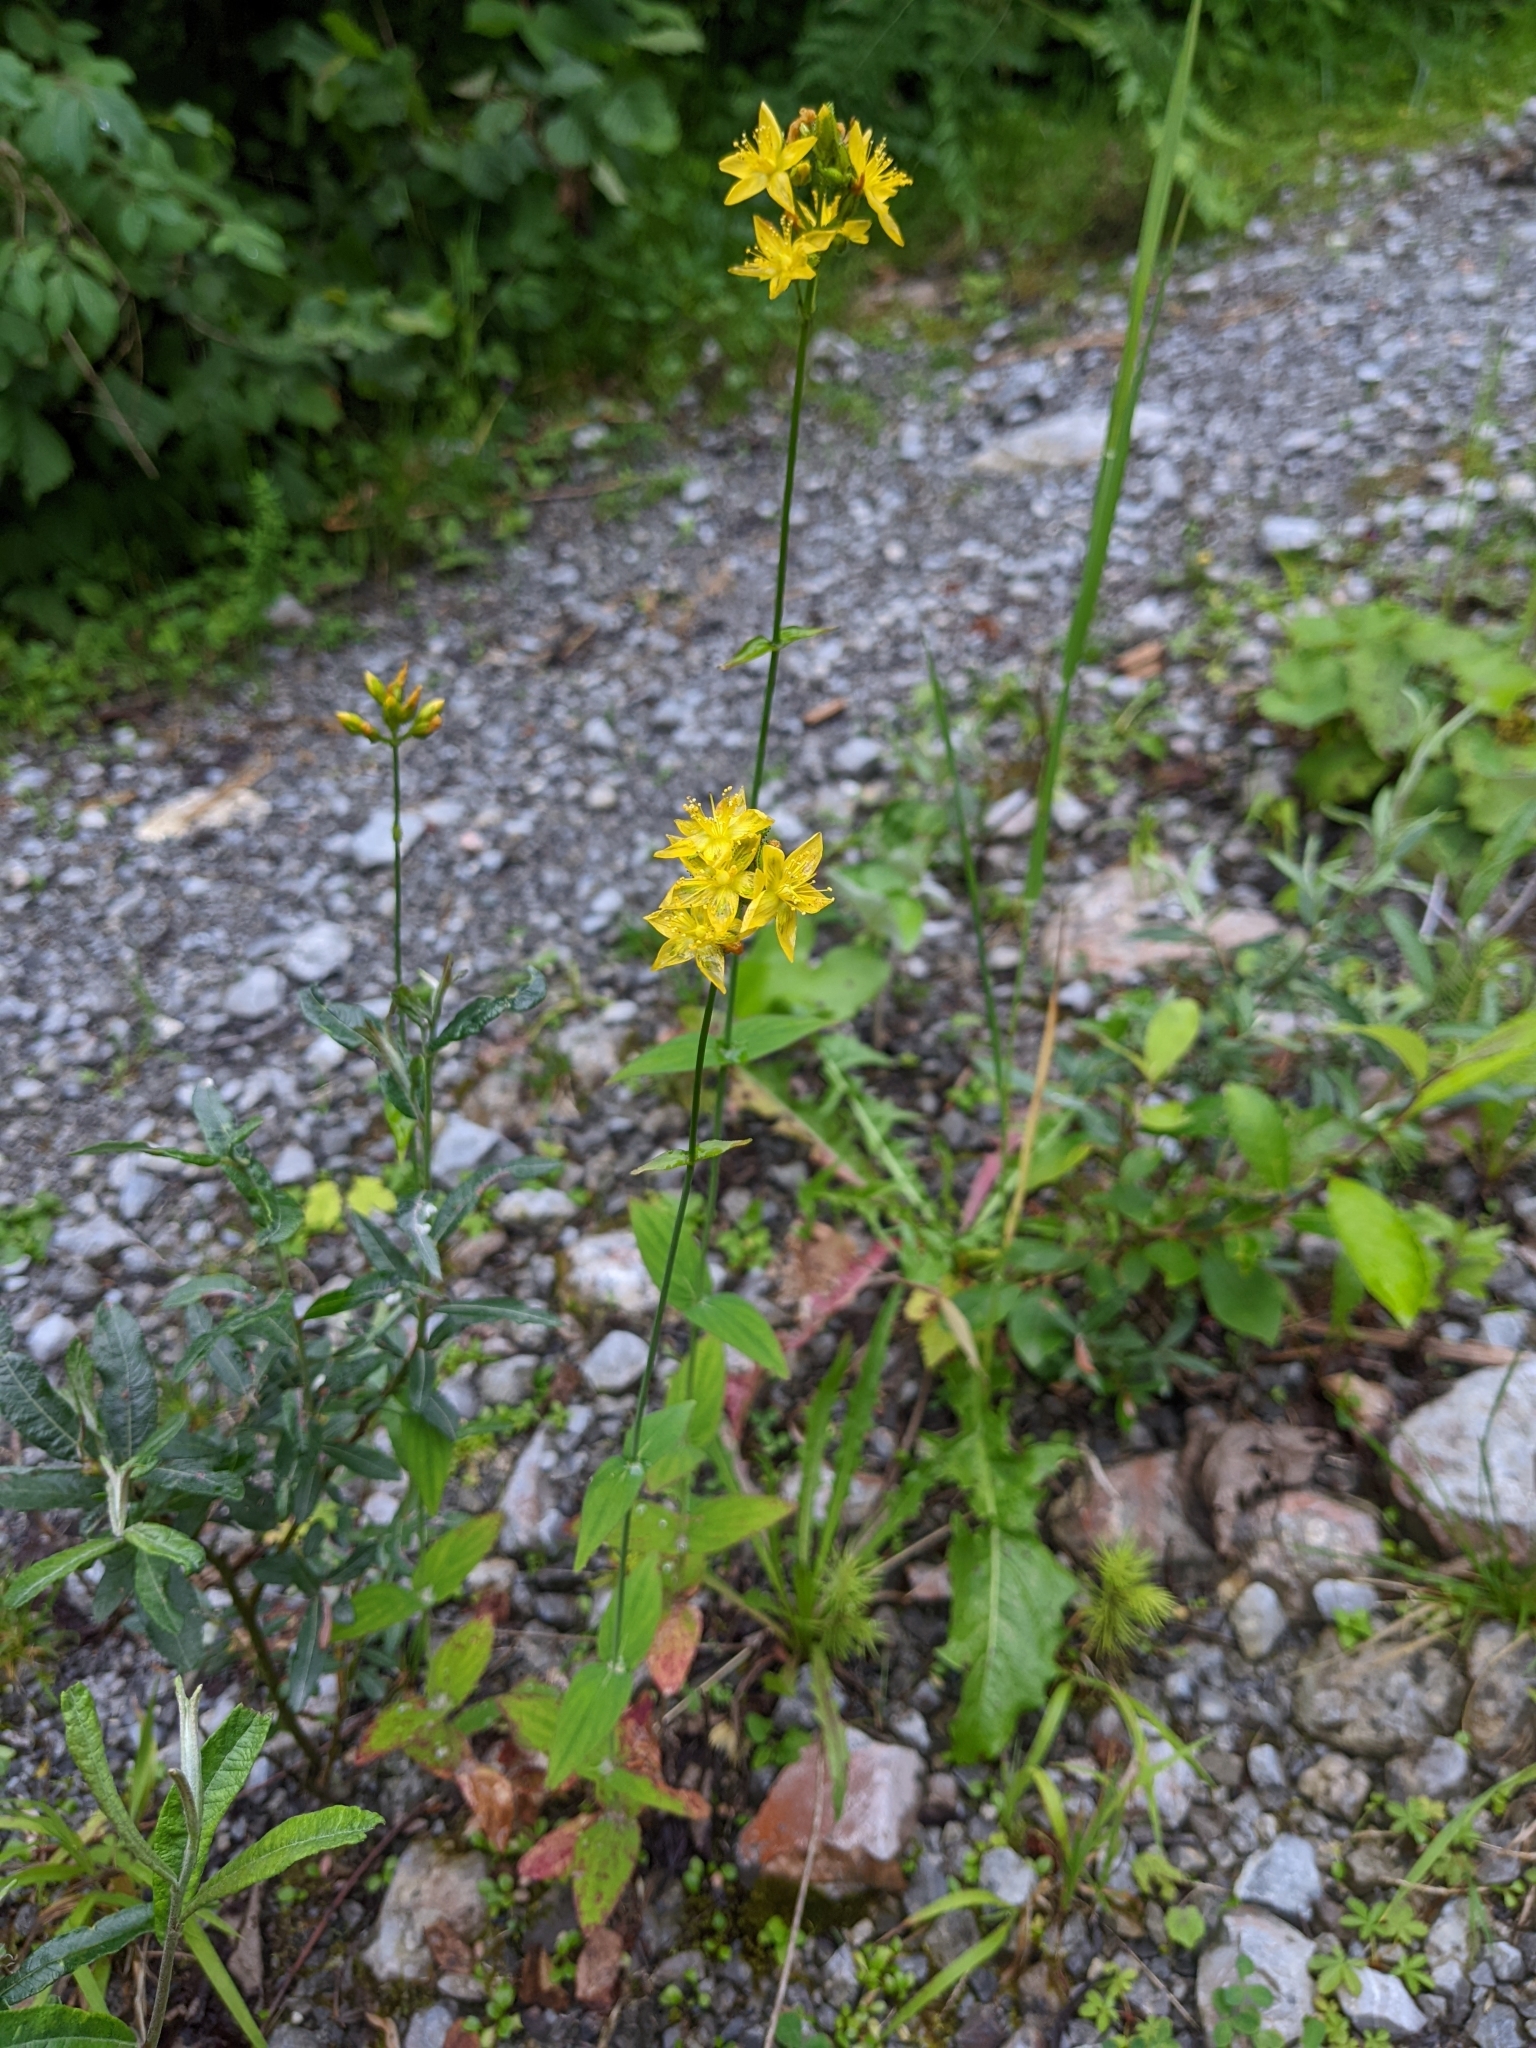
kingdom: Plantae
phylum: Tracheophyta
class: Magnoliopsida
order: Malpighiales
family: Hypericaceae
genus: Hypericum
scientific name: Hypericum montanum
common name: Pale st. john's-wort
